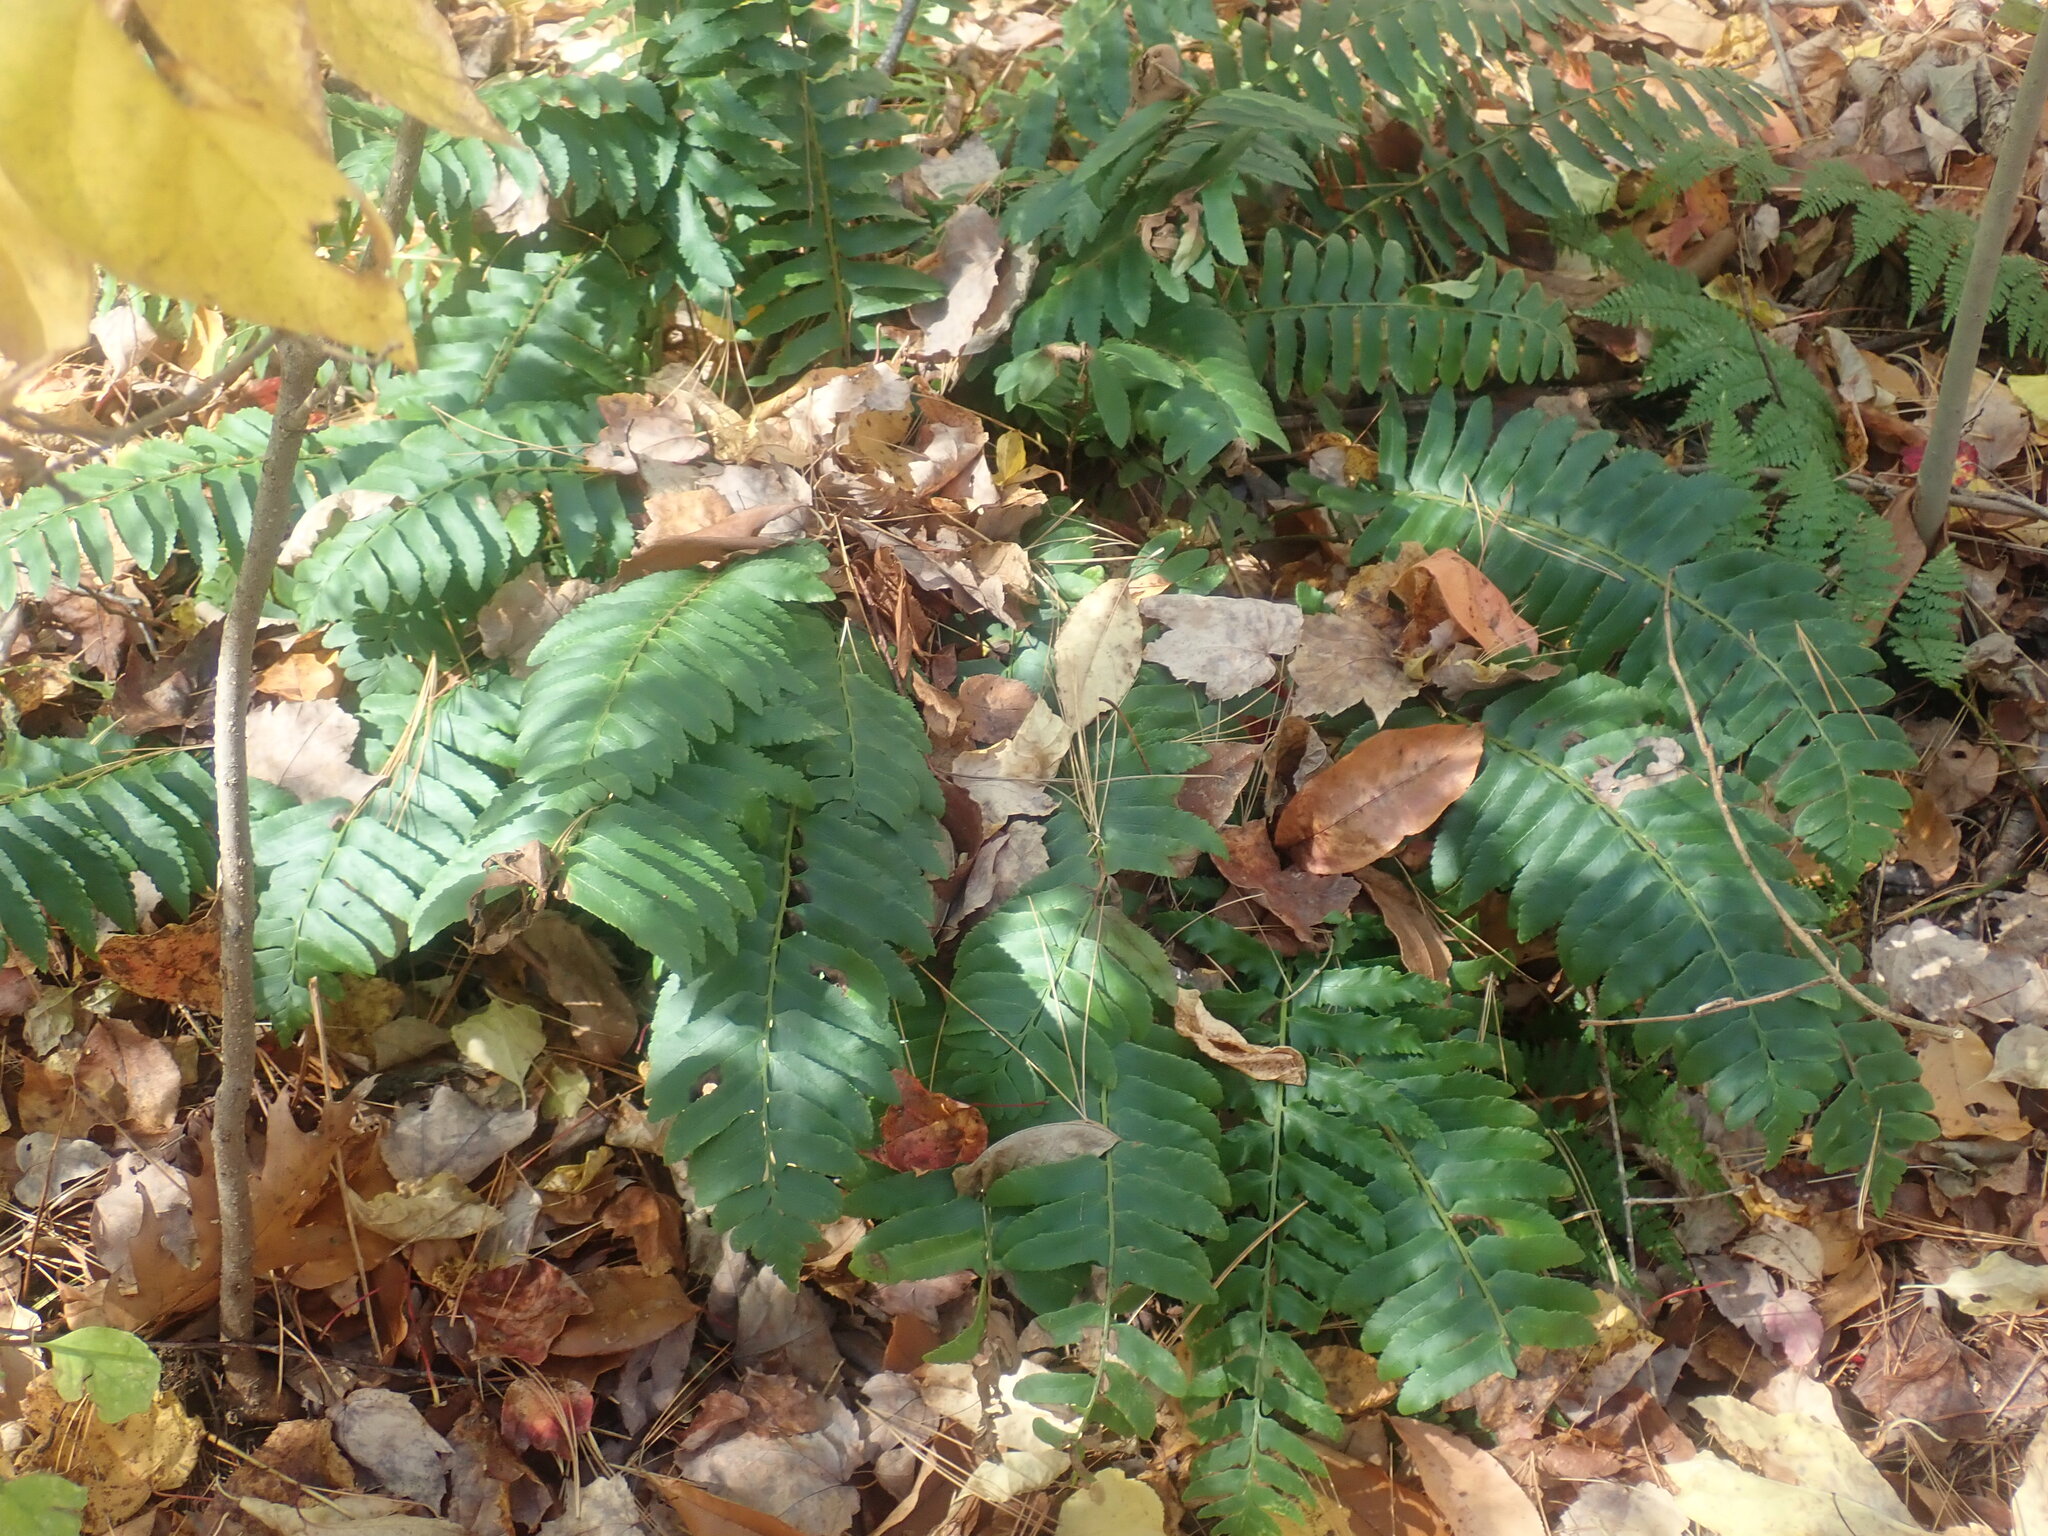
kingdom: Plantae
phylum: Tracheophyta
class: Polypodiopsida
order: Polypodiales
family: Dryopteridaceae
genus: Polystichum
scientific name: Polystichum acrostichoides
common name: Christmas fern
